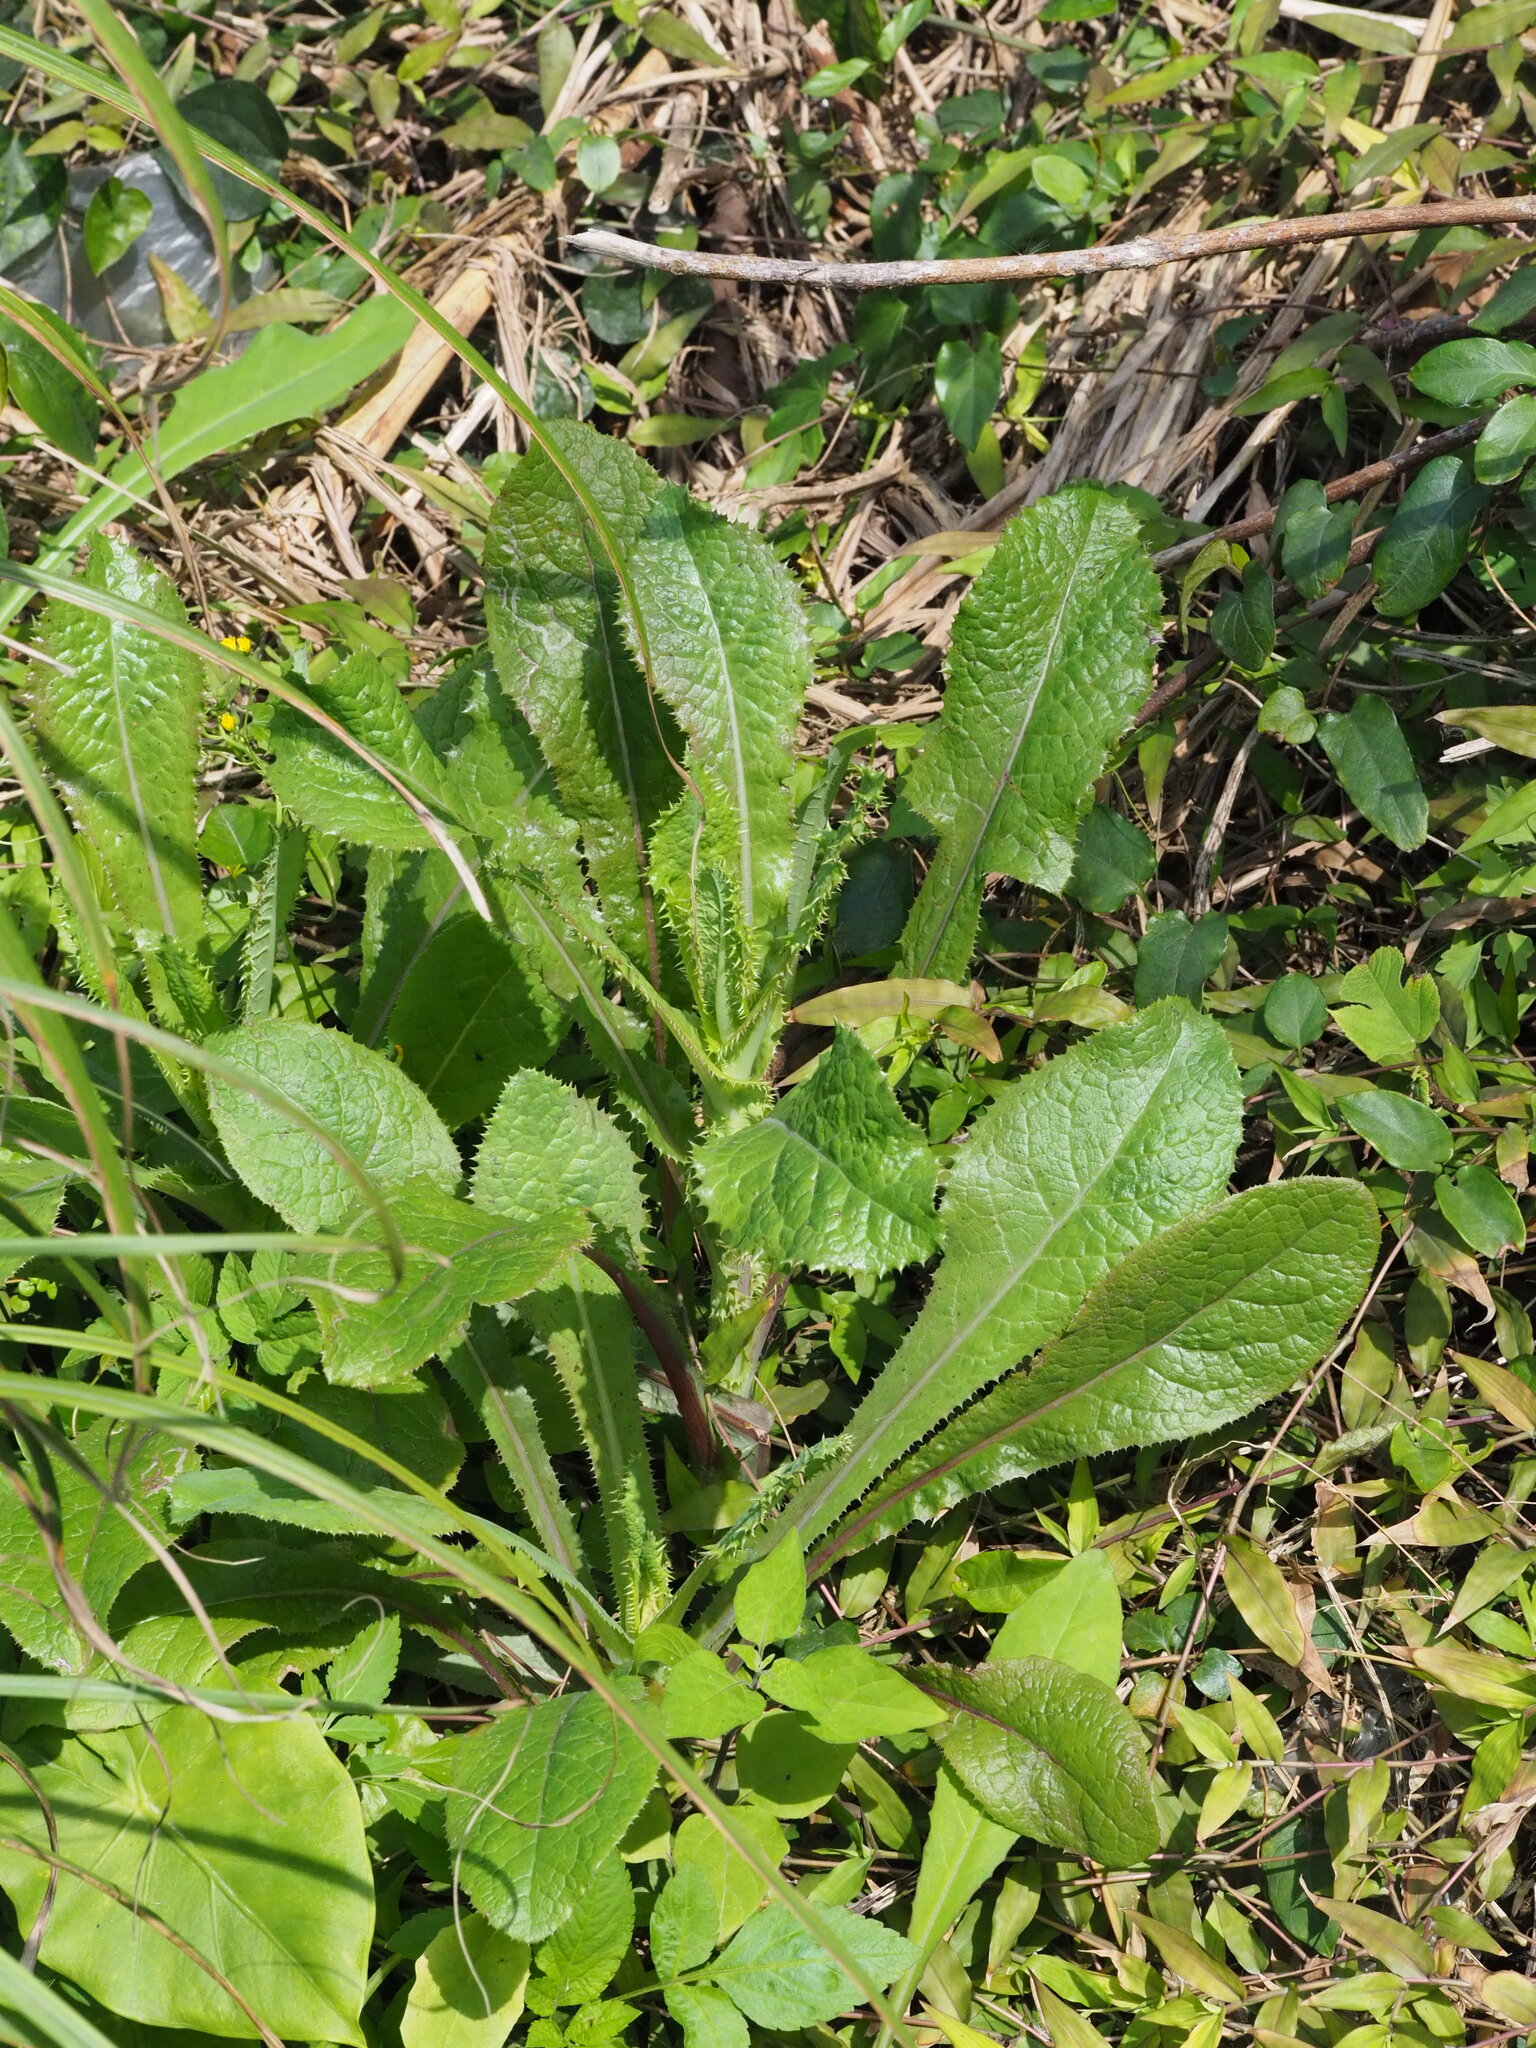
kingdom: Plantae
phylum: Tracheophyta
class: Magnoliopsida
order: Asterales
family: Asteraceae
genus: Sonchus
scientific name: Sonchus asper
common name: Prickly sow-thistle
